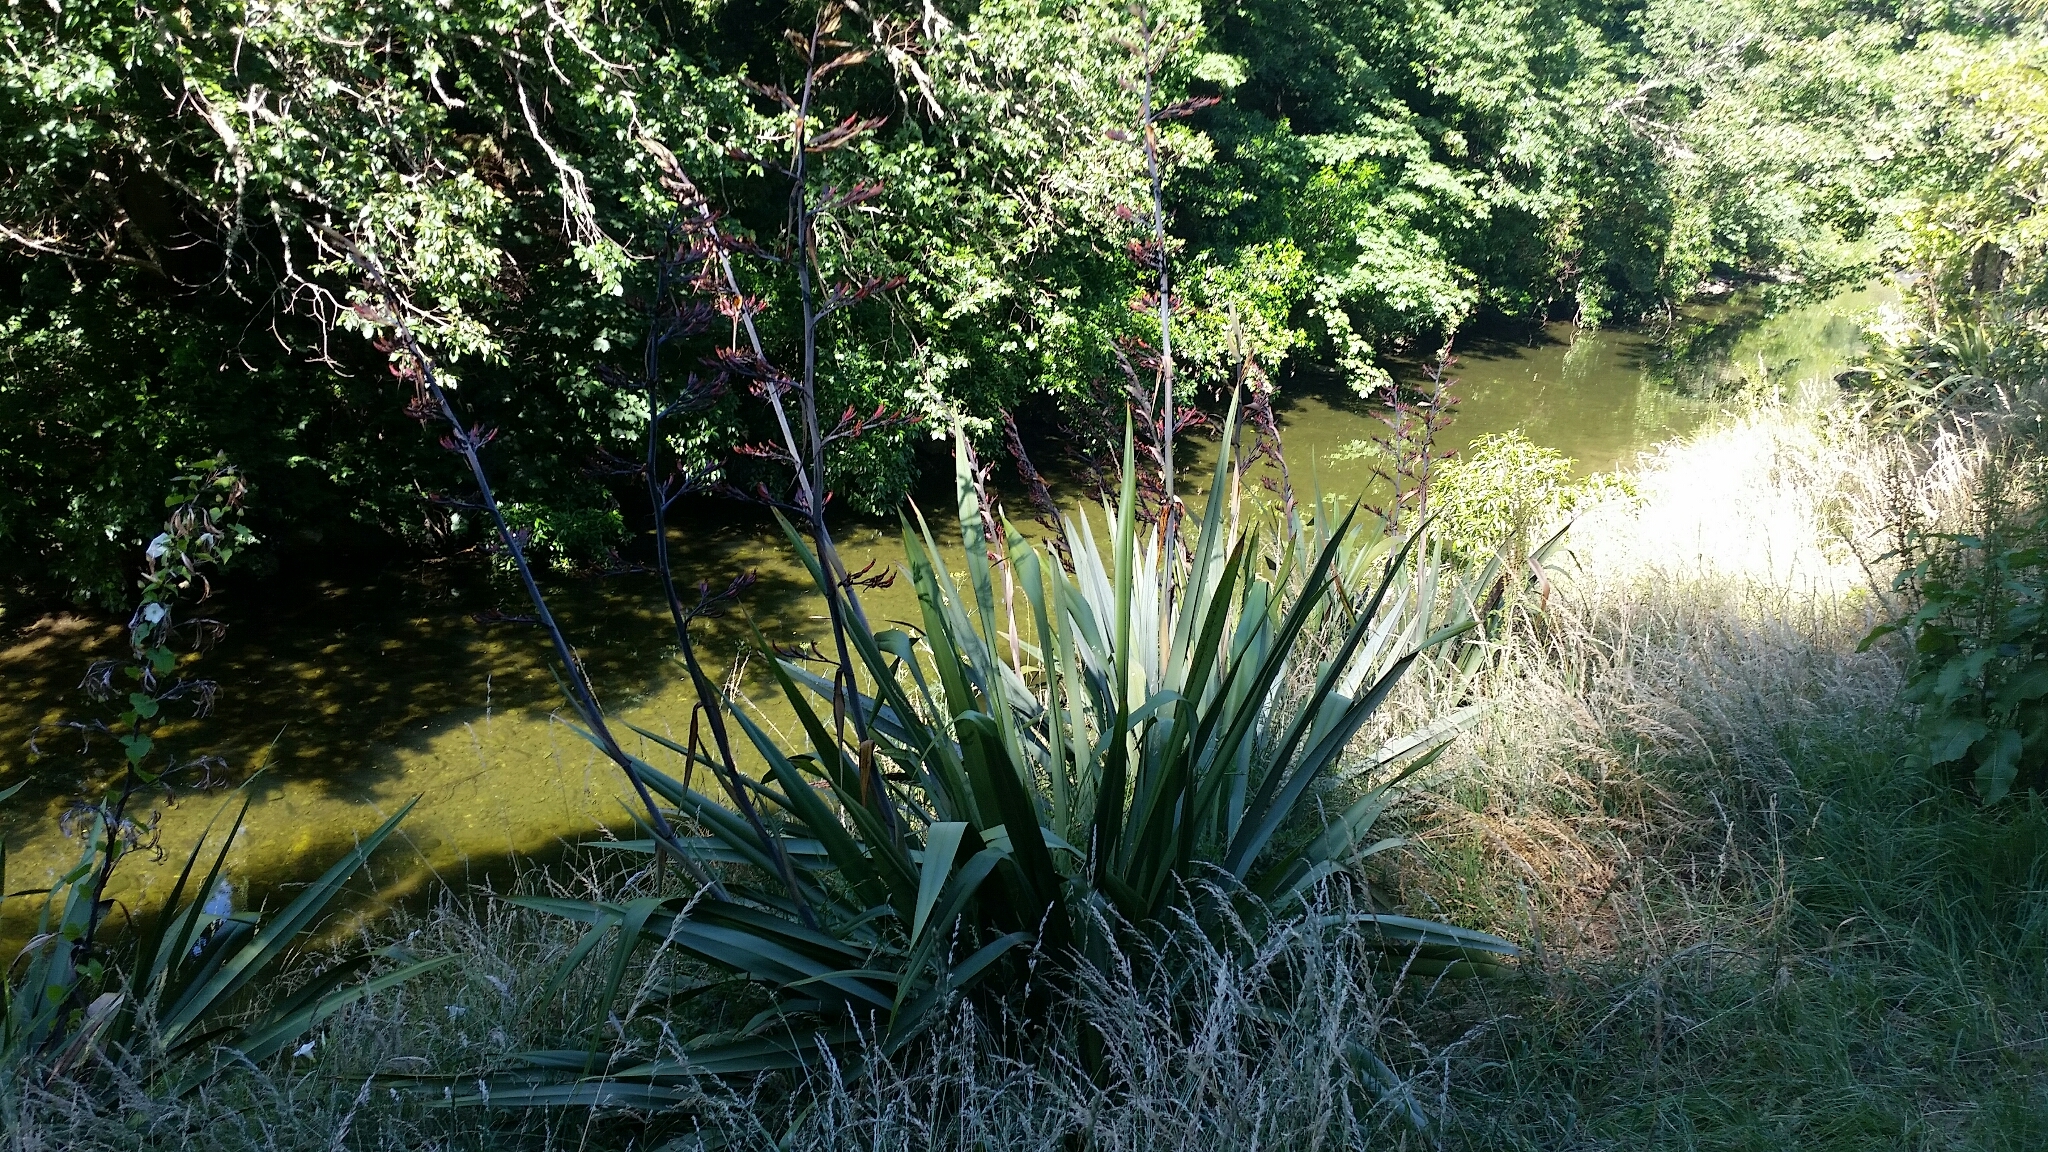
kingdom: Plantae
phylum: Tracheophyta
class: Liliopsida
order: Asparagales
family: Asphodelaceae
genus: Phormium
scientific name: Phormium tenax
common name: New zealand flax
